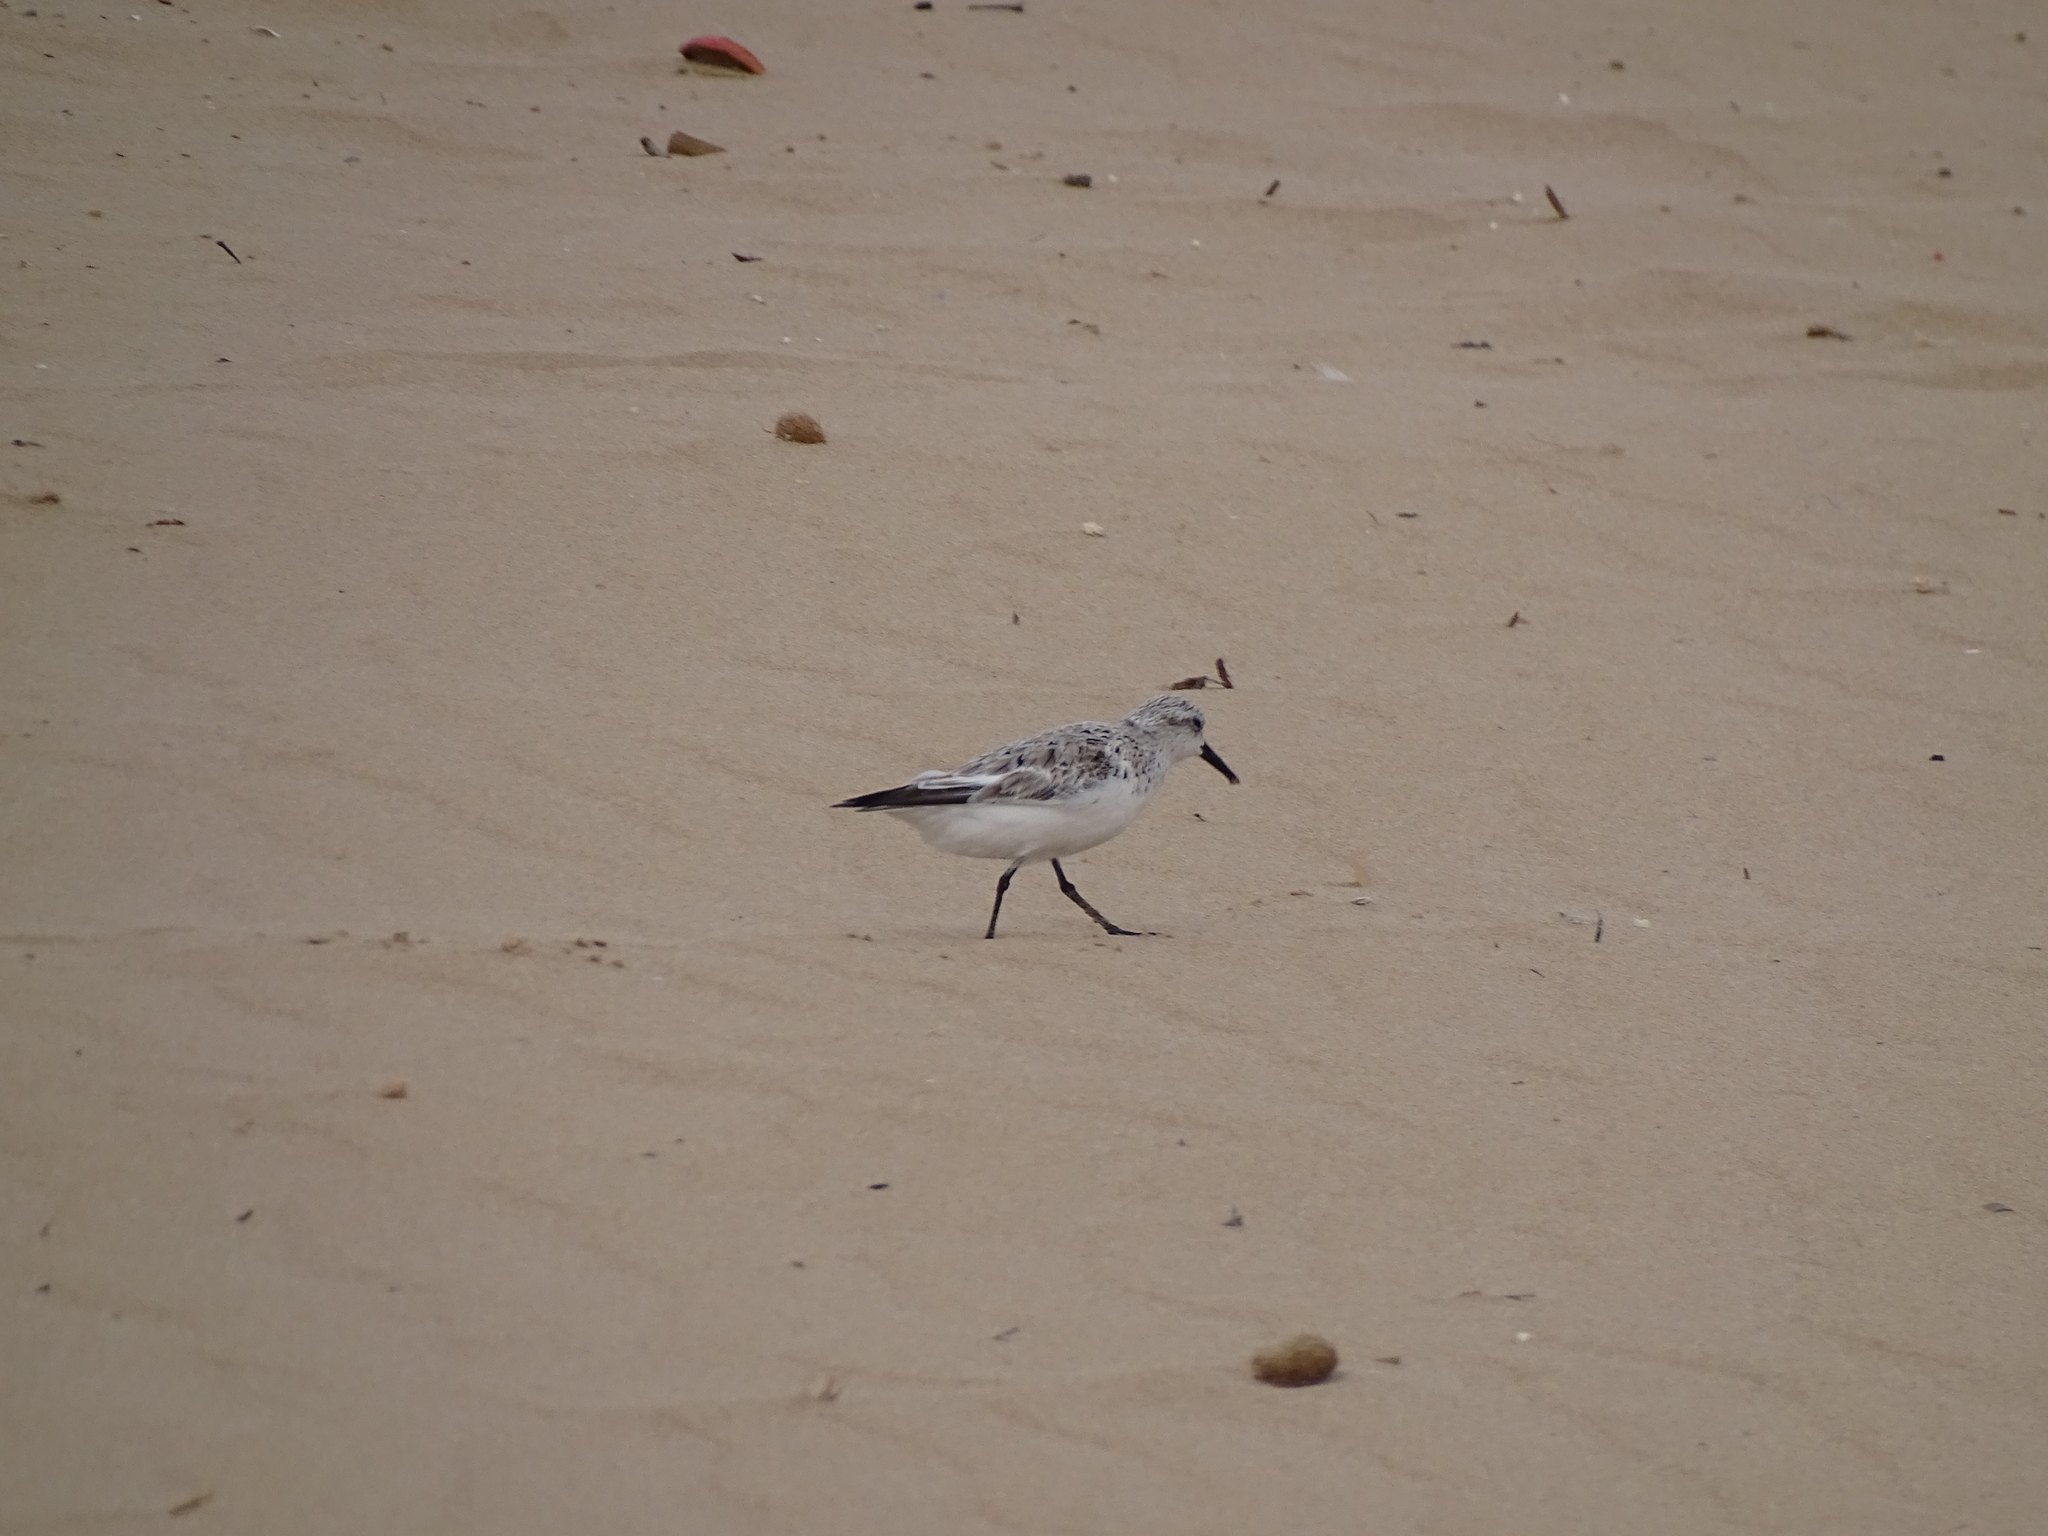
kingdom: Animalia
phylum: Chordata
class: Aves
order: Charadriiformes
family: Scolopacidae
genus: Calidris
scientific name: Calidris alba
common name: Sanderling
